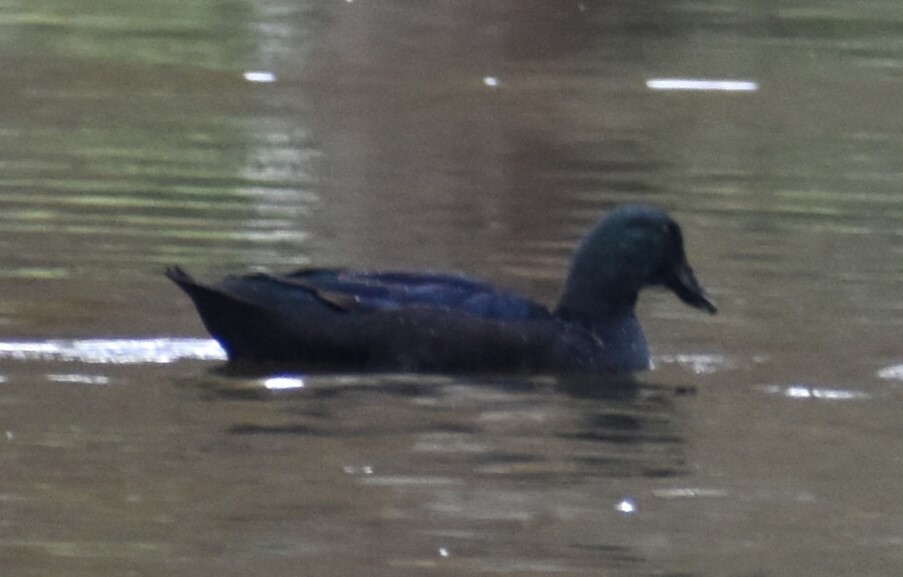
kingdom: Animalia
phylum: Chordata
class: Aves
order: Anseriformes
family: Anatidae
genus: Anas
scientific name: Anas platyrhynchos
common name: Mallard
